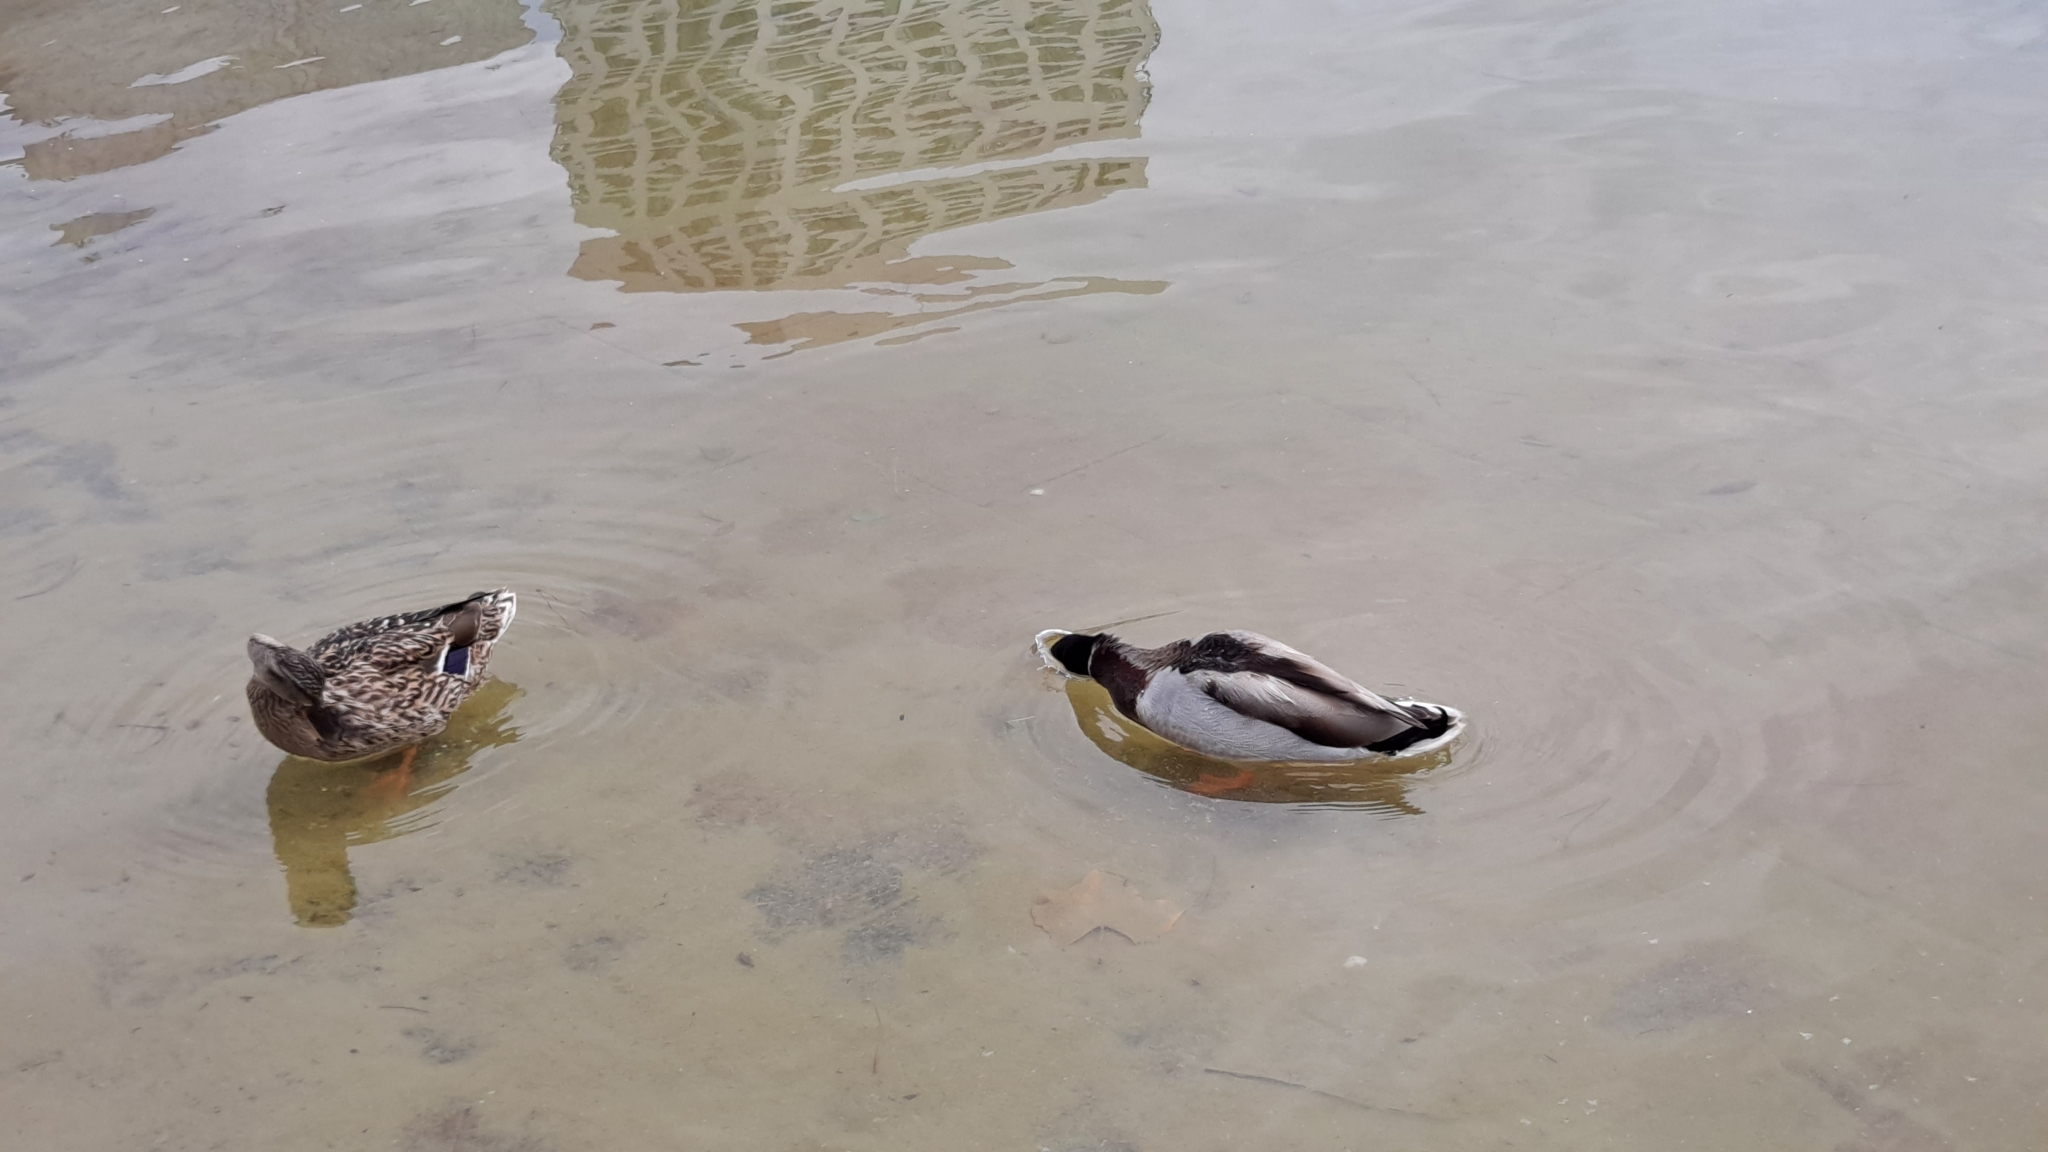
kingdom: Animalia
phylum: Chordata
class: Aves
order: Anseriformes
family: Anatidae
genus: Anas
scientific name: Anas platyrhynchos
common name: Mallard
